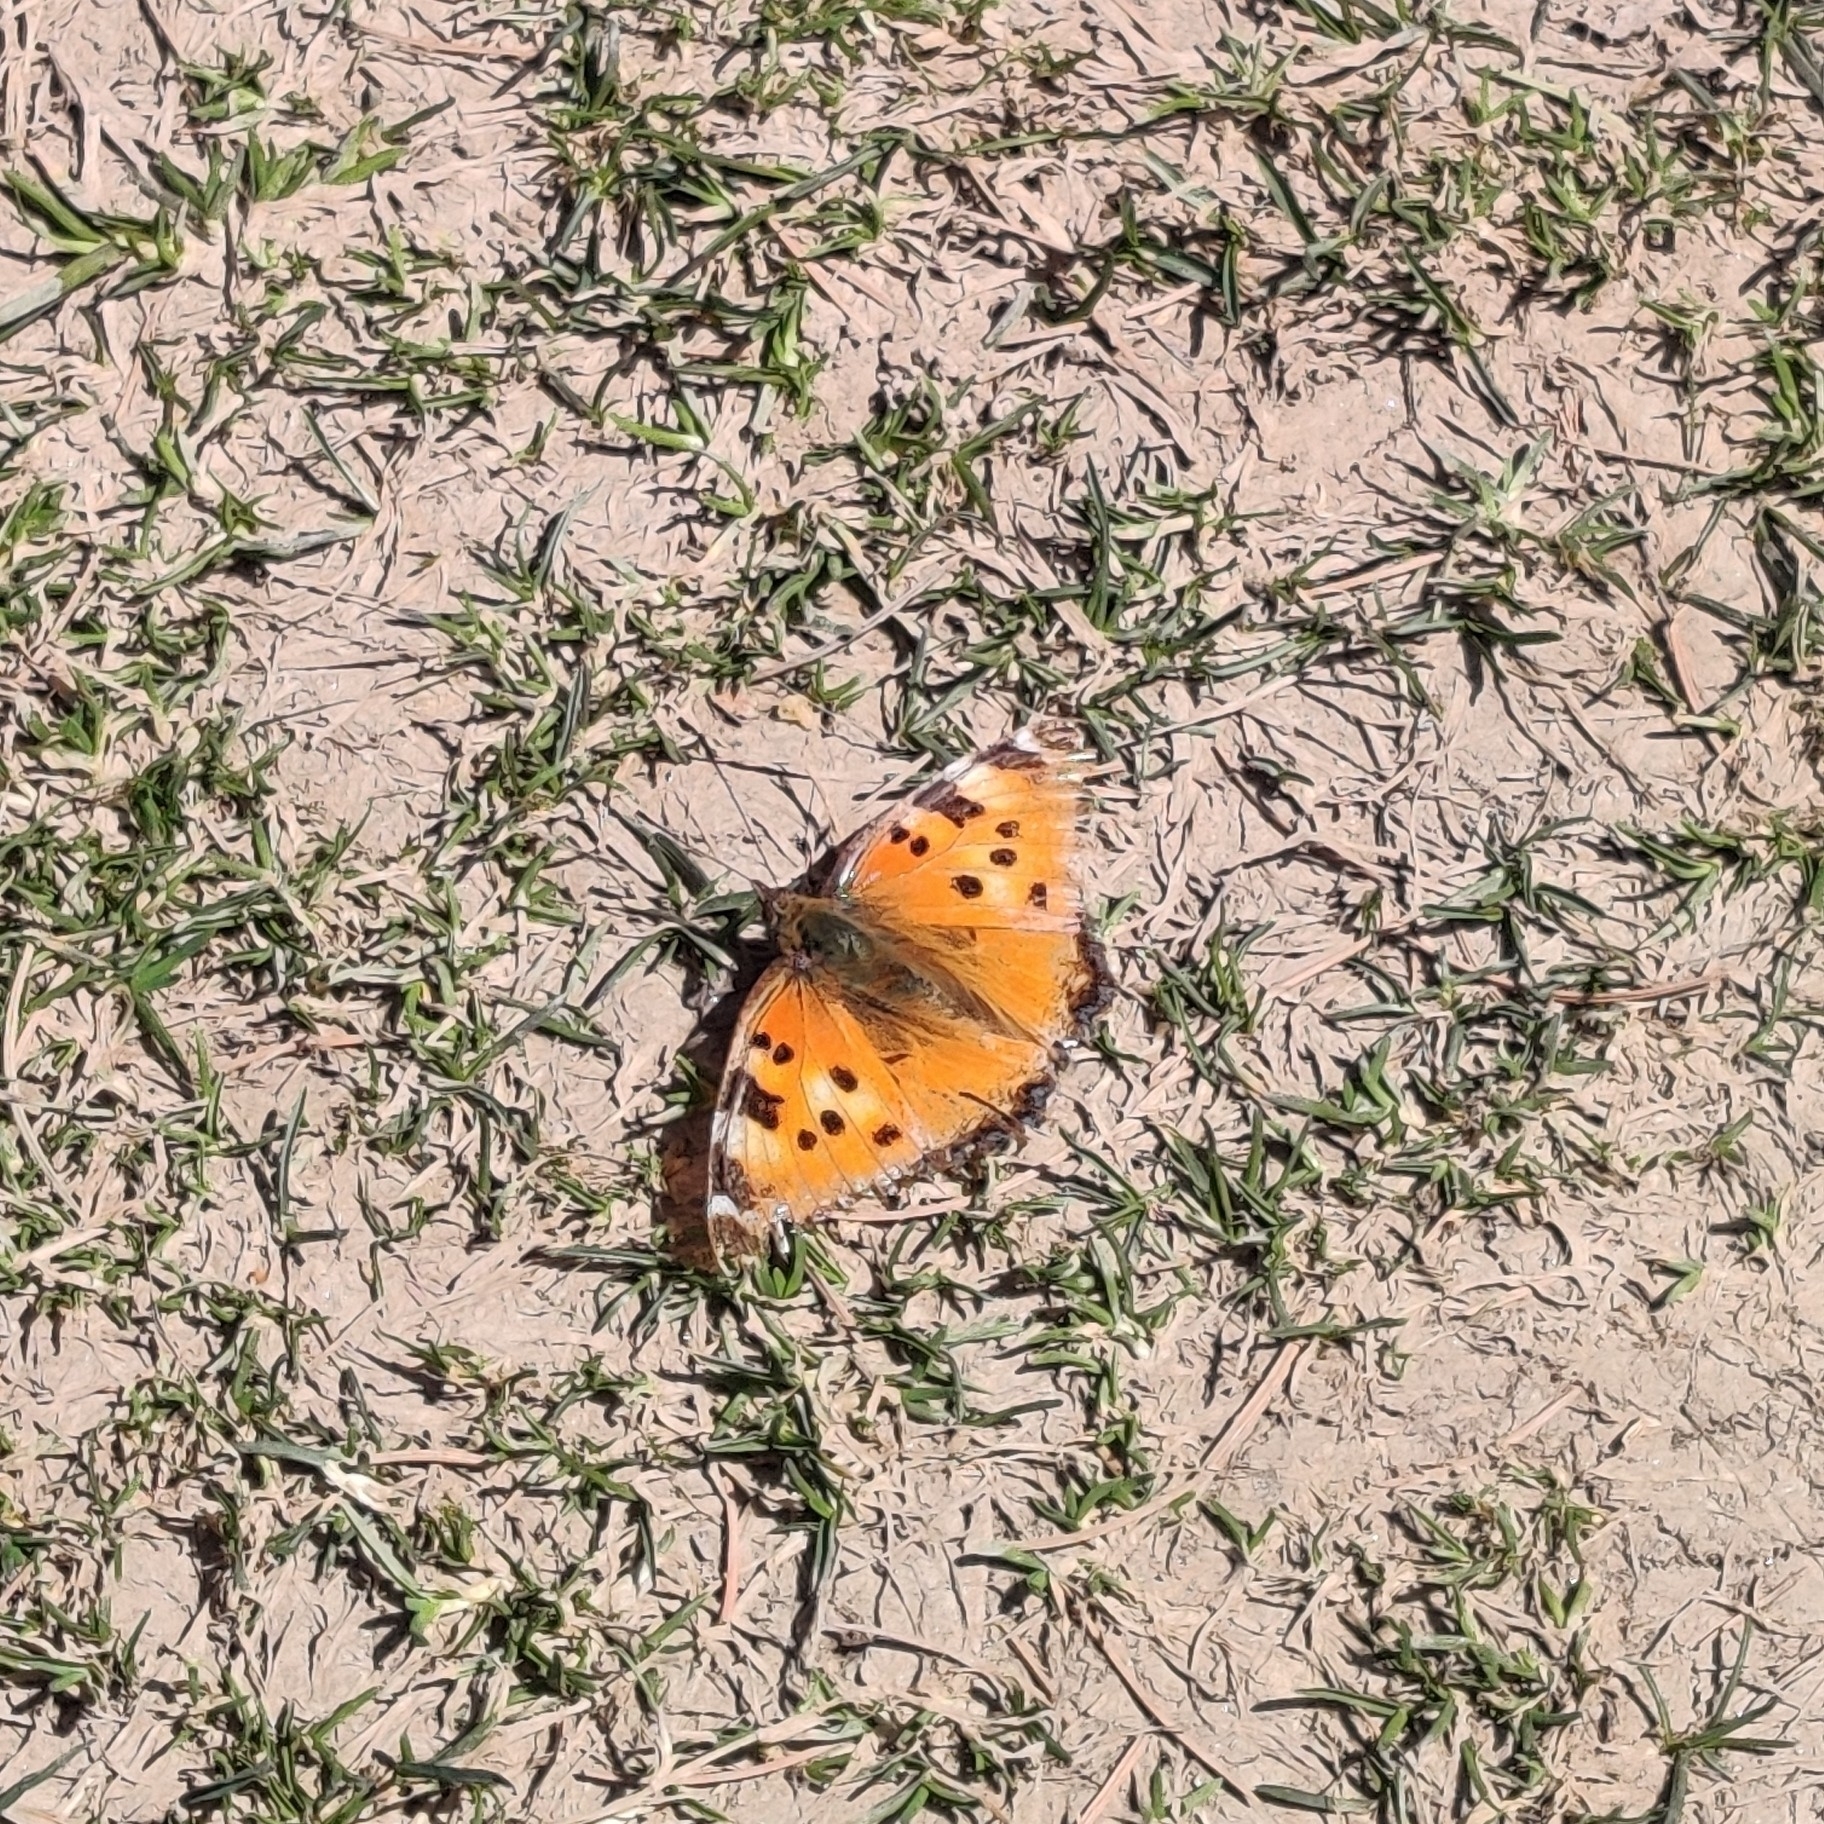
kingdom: Animalia
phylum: Arthropoda
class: Insecta
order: Lepidoptera
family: Nymphalidae
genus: Nymphalis
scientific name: Nymphalis xanthomelas
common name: Scarce tortoiseshell
